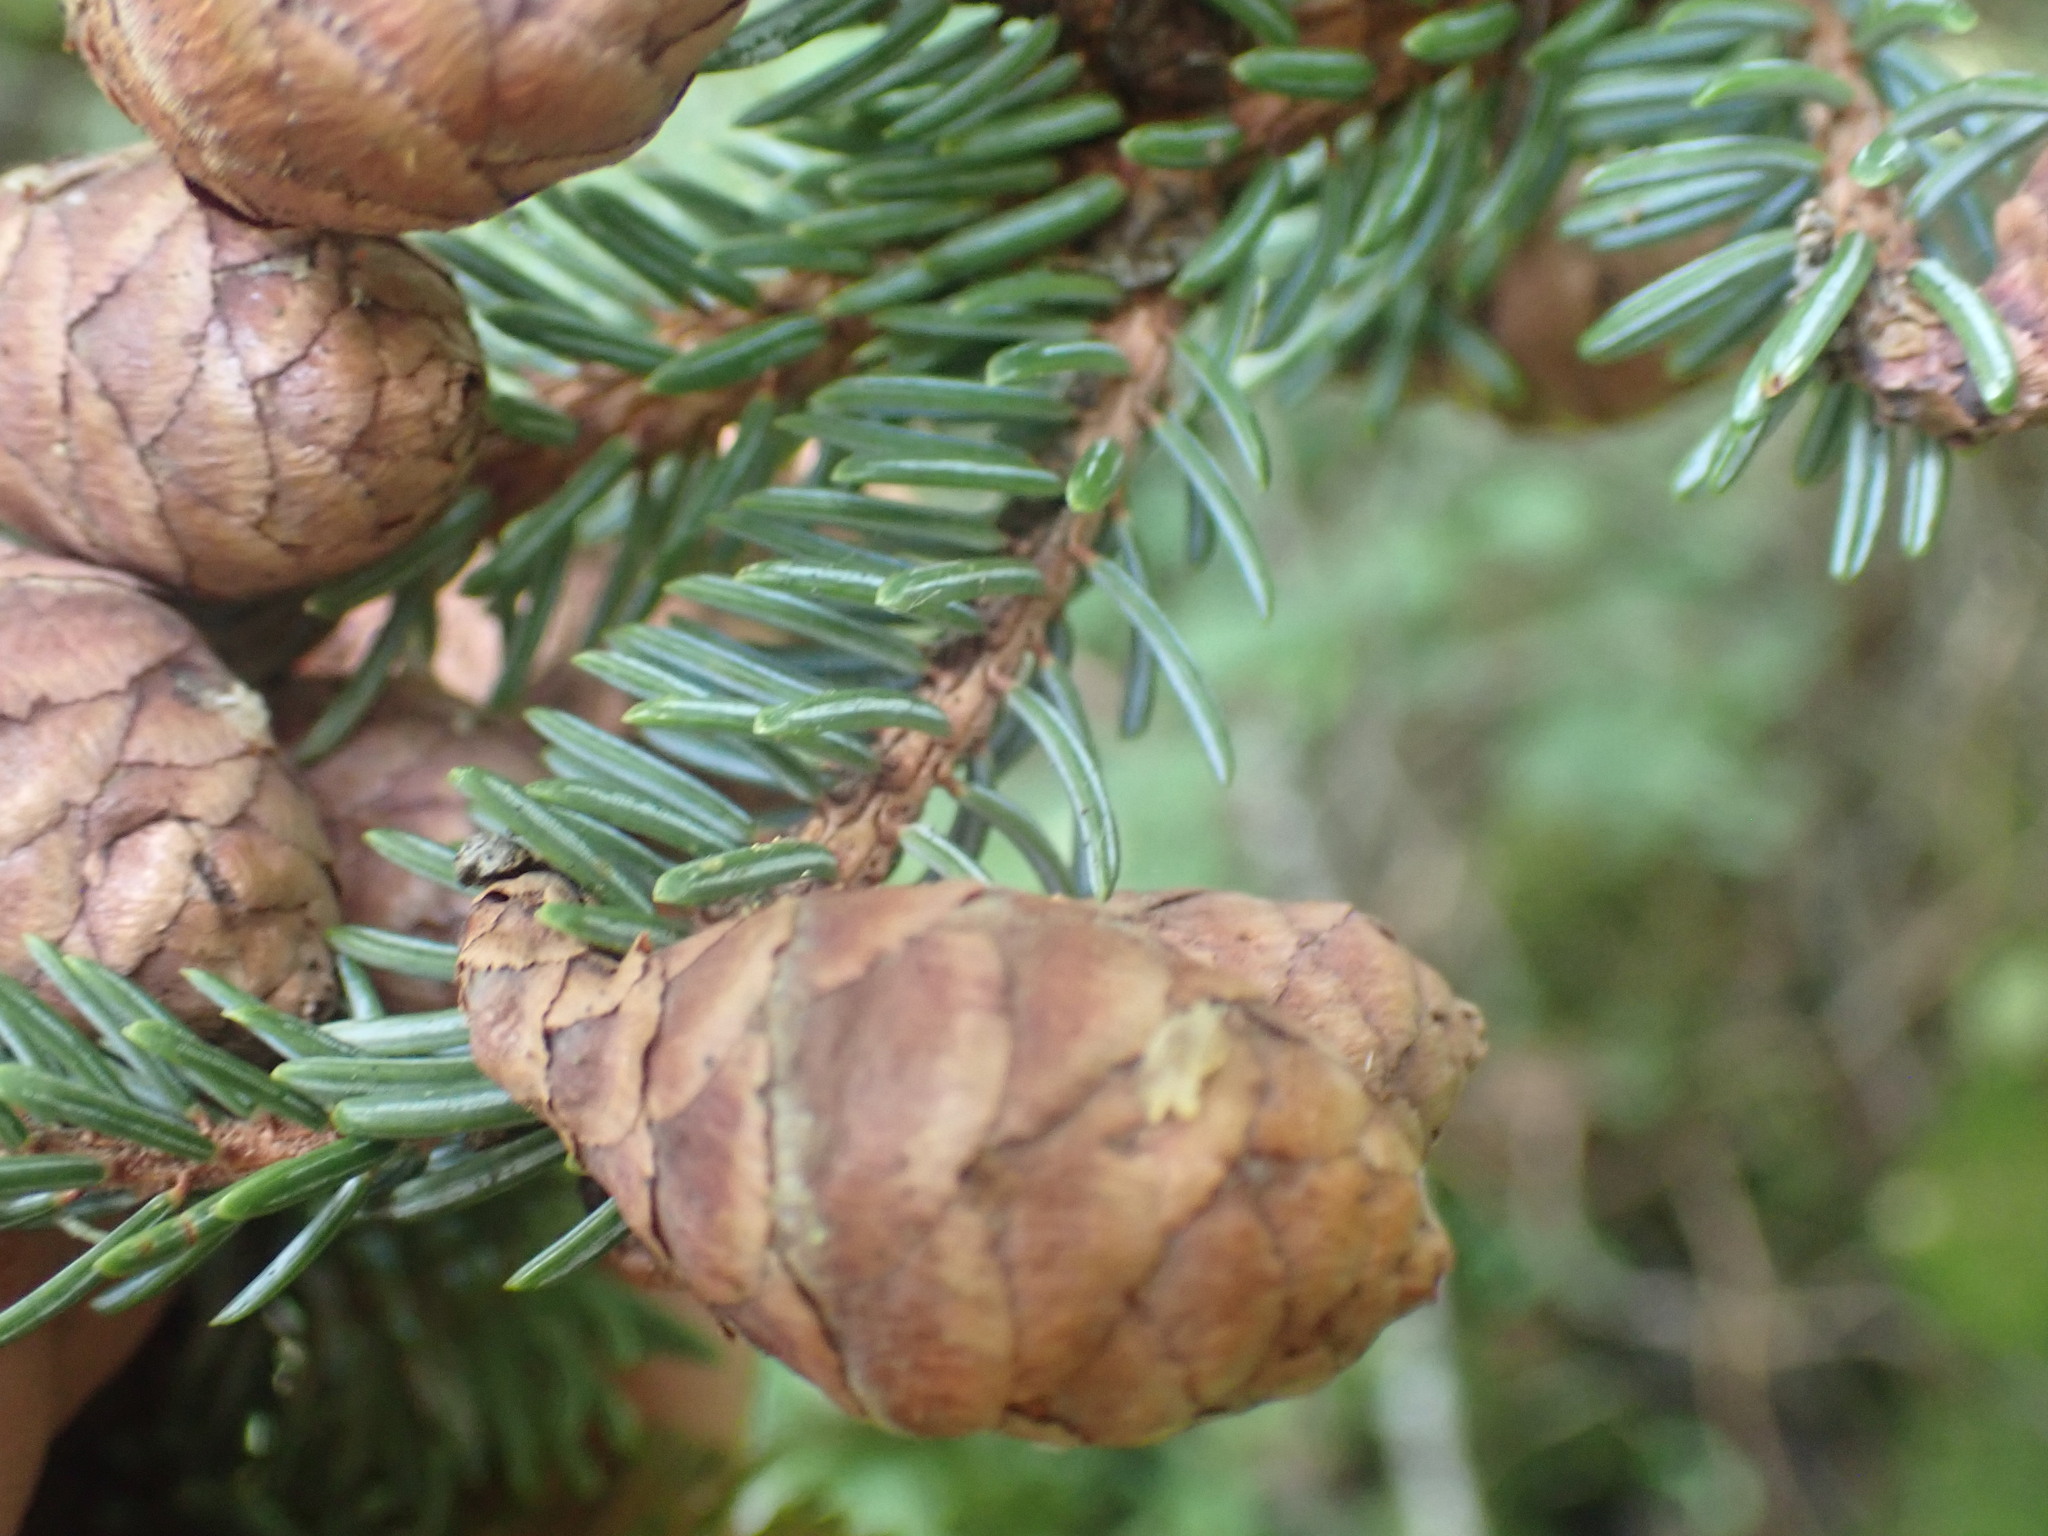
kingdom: Plantae
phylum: Tracheophyta
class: Pinopsida
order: Pinales
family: Pinaceae
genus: Picea
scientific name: Picea mariana
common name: Black spruce
